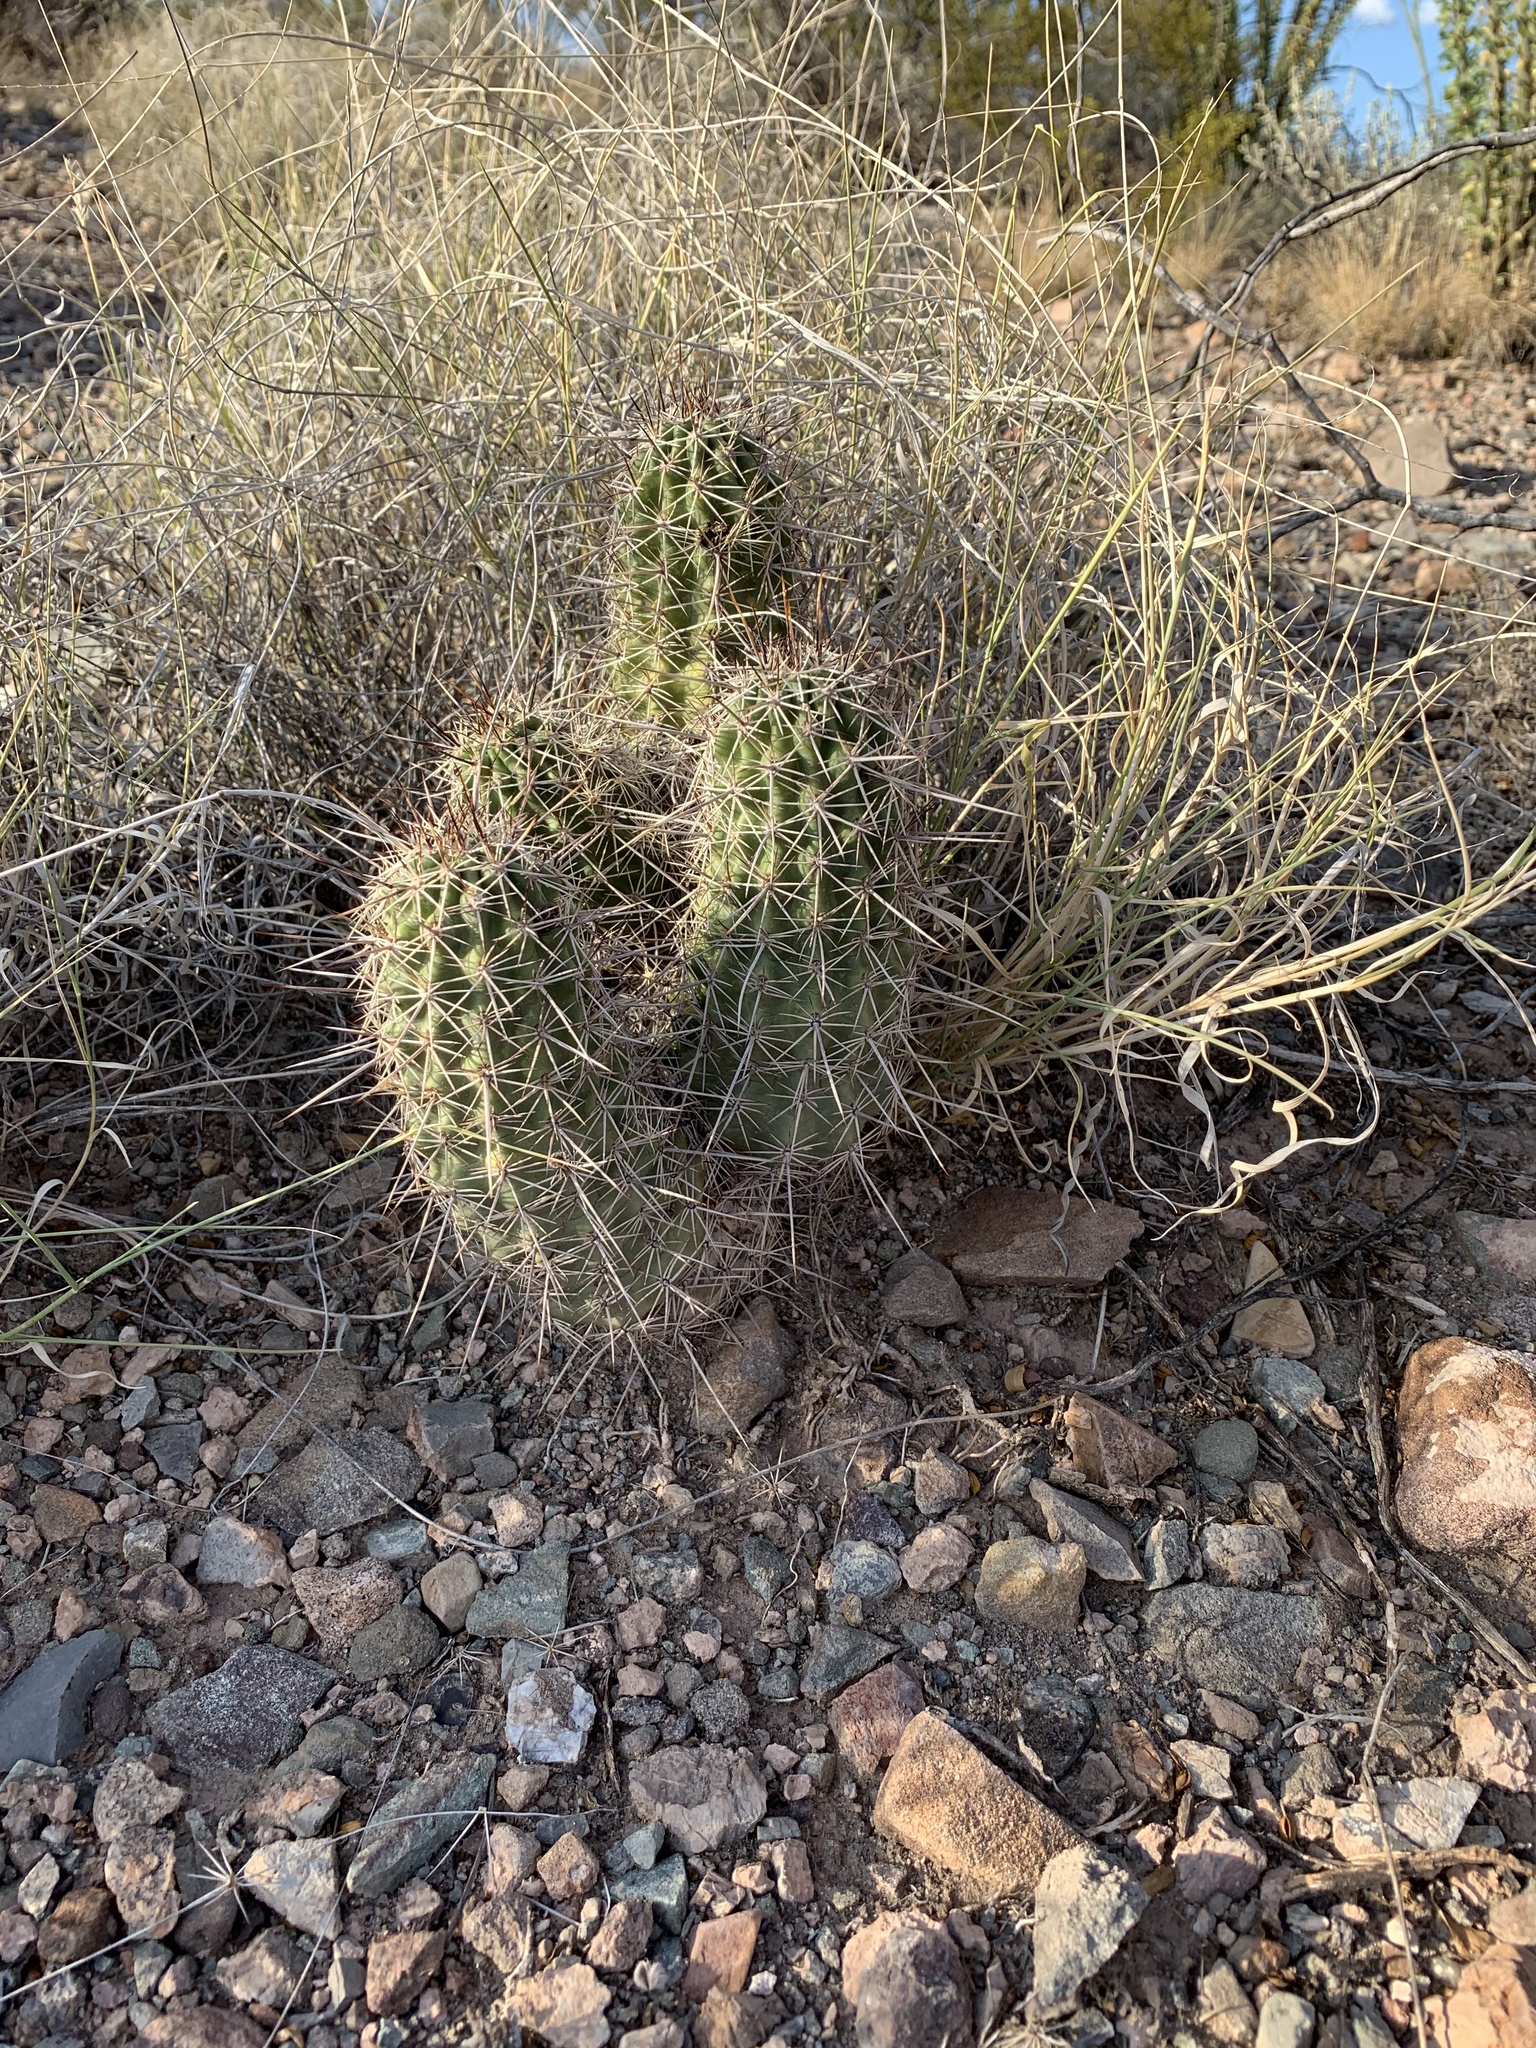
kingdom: Plantae
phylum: Tracheophyta
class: Magnoliopsida
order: Caryophyllales
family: Cactaceae
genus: Echinocereus
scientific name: Echinocereus fasciculatus
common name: Bundle hedgehog
